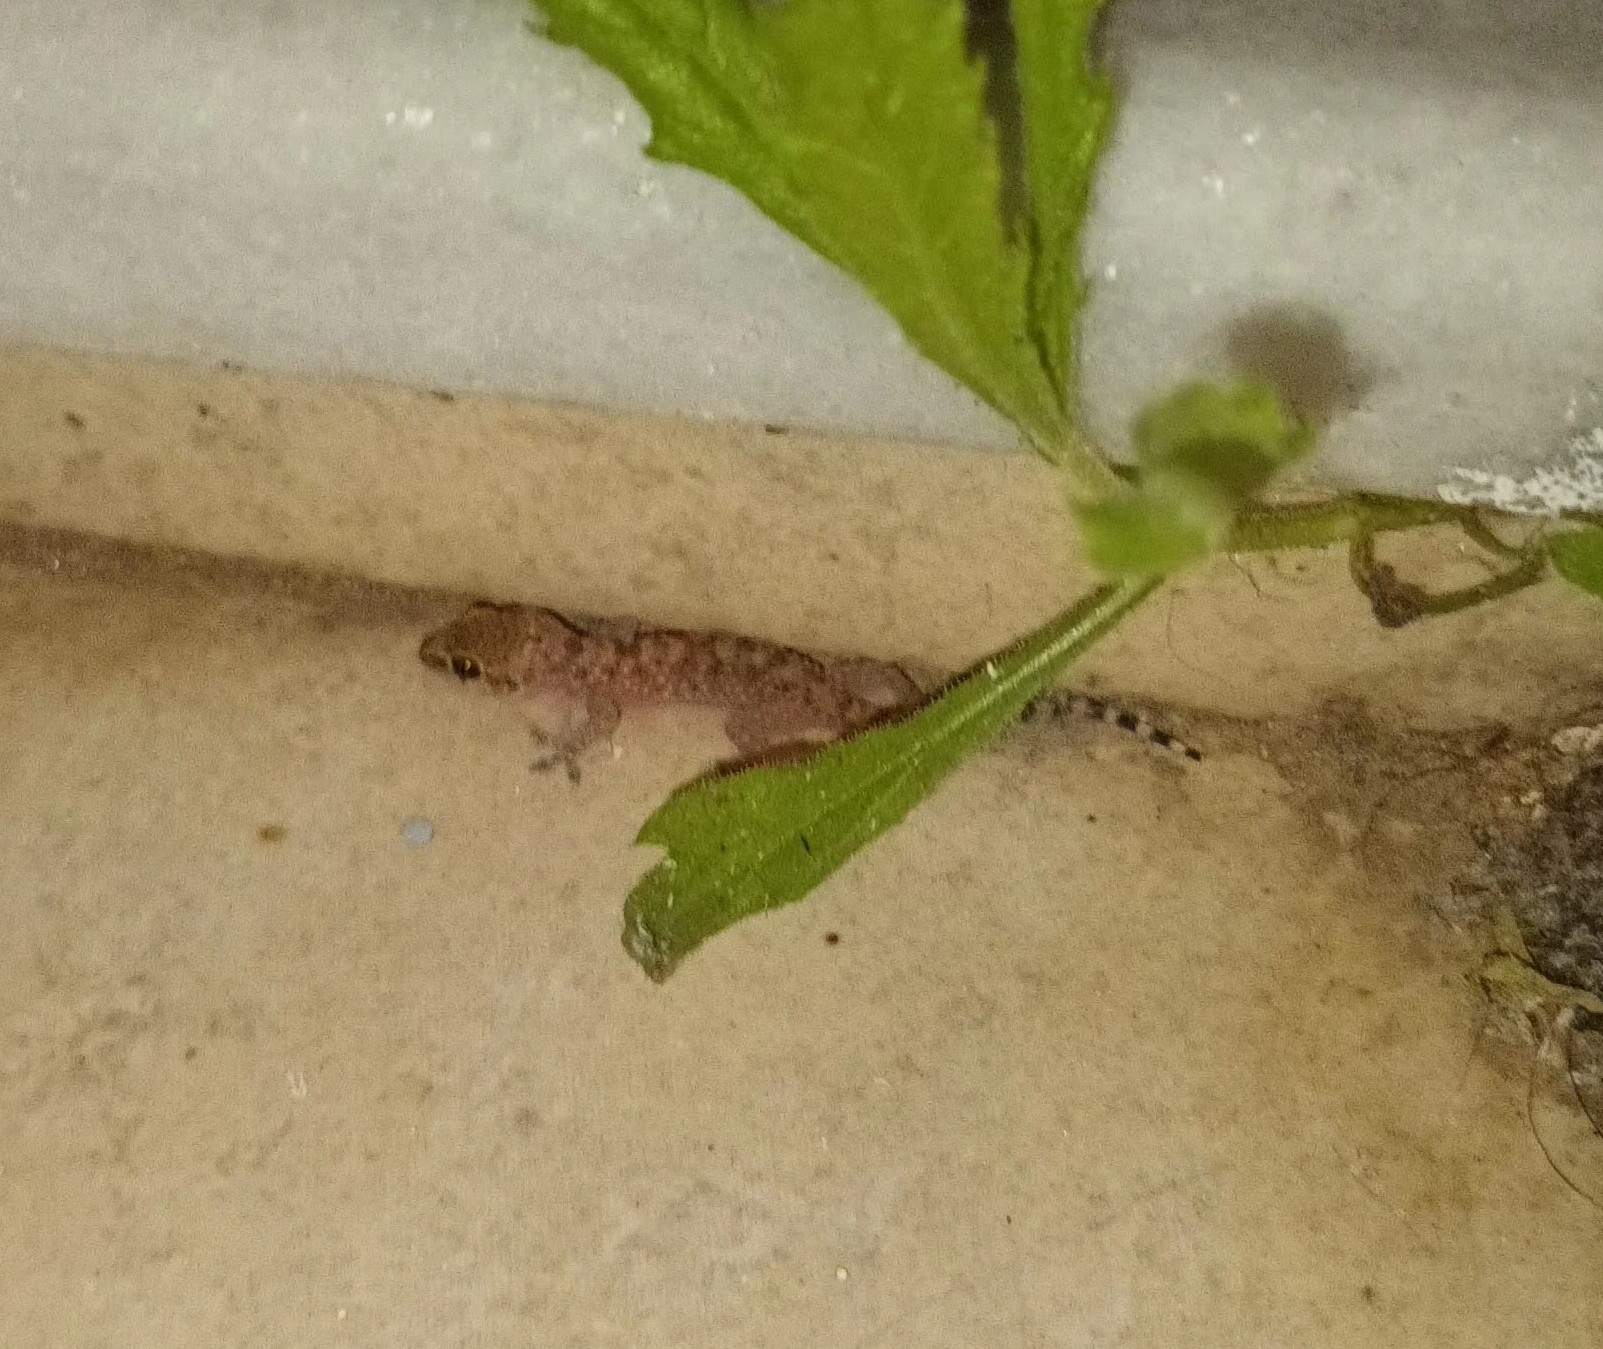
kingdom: Animalia
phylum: Chordata
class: Squamata
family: Gekkonidae
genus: Hemidactylus
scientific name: Hemidactylus turcicus
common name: Turkish gecko
